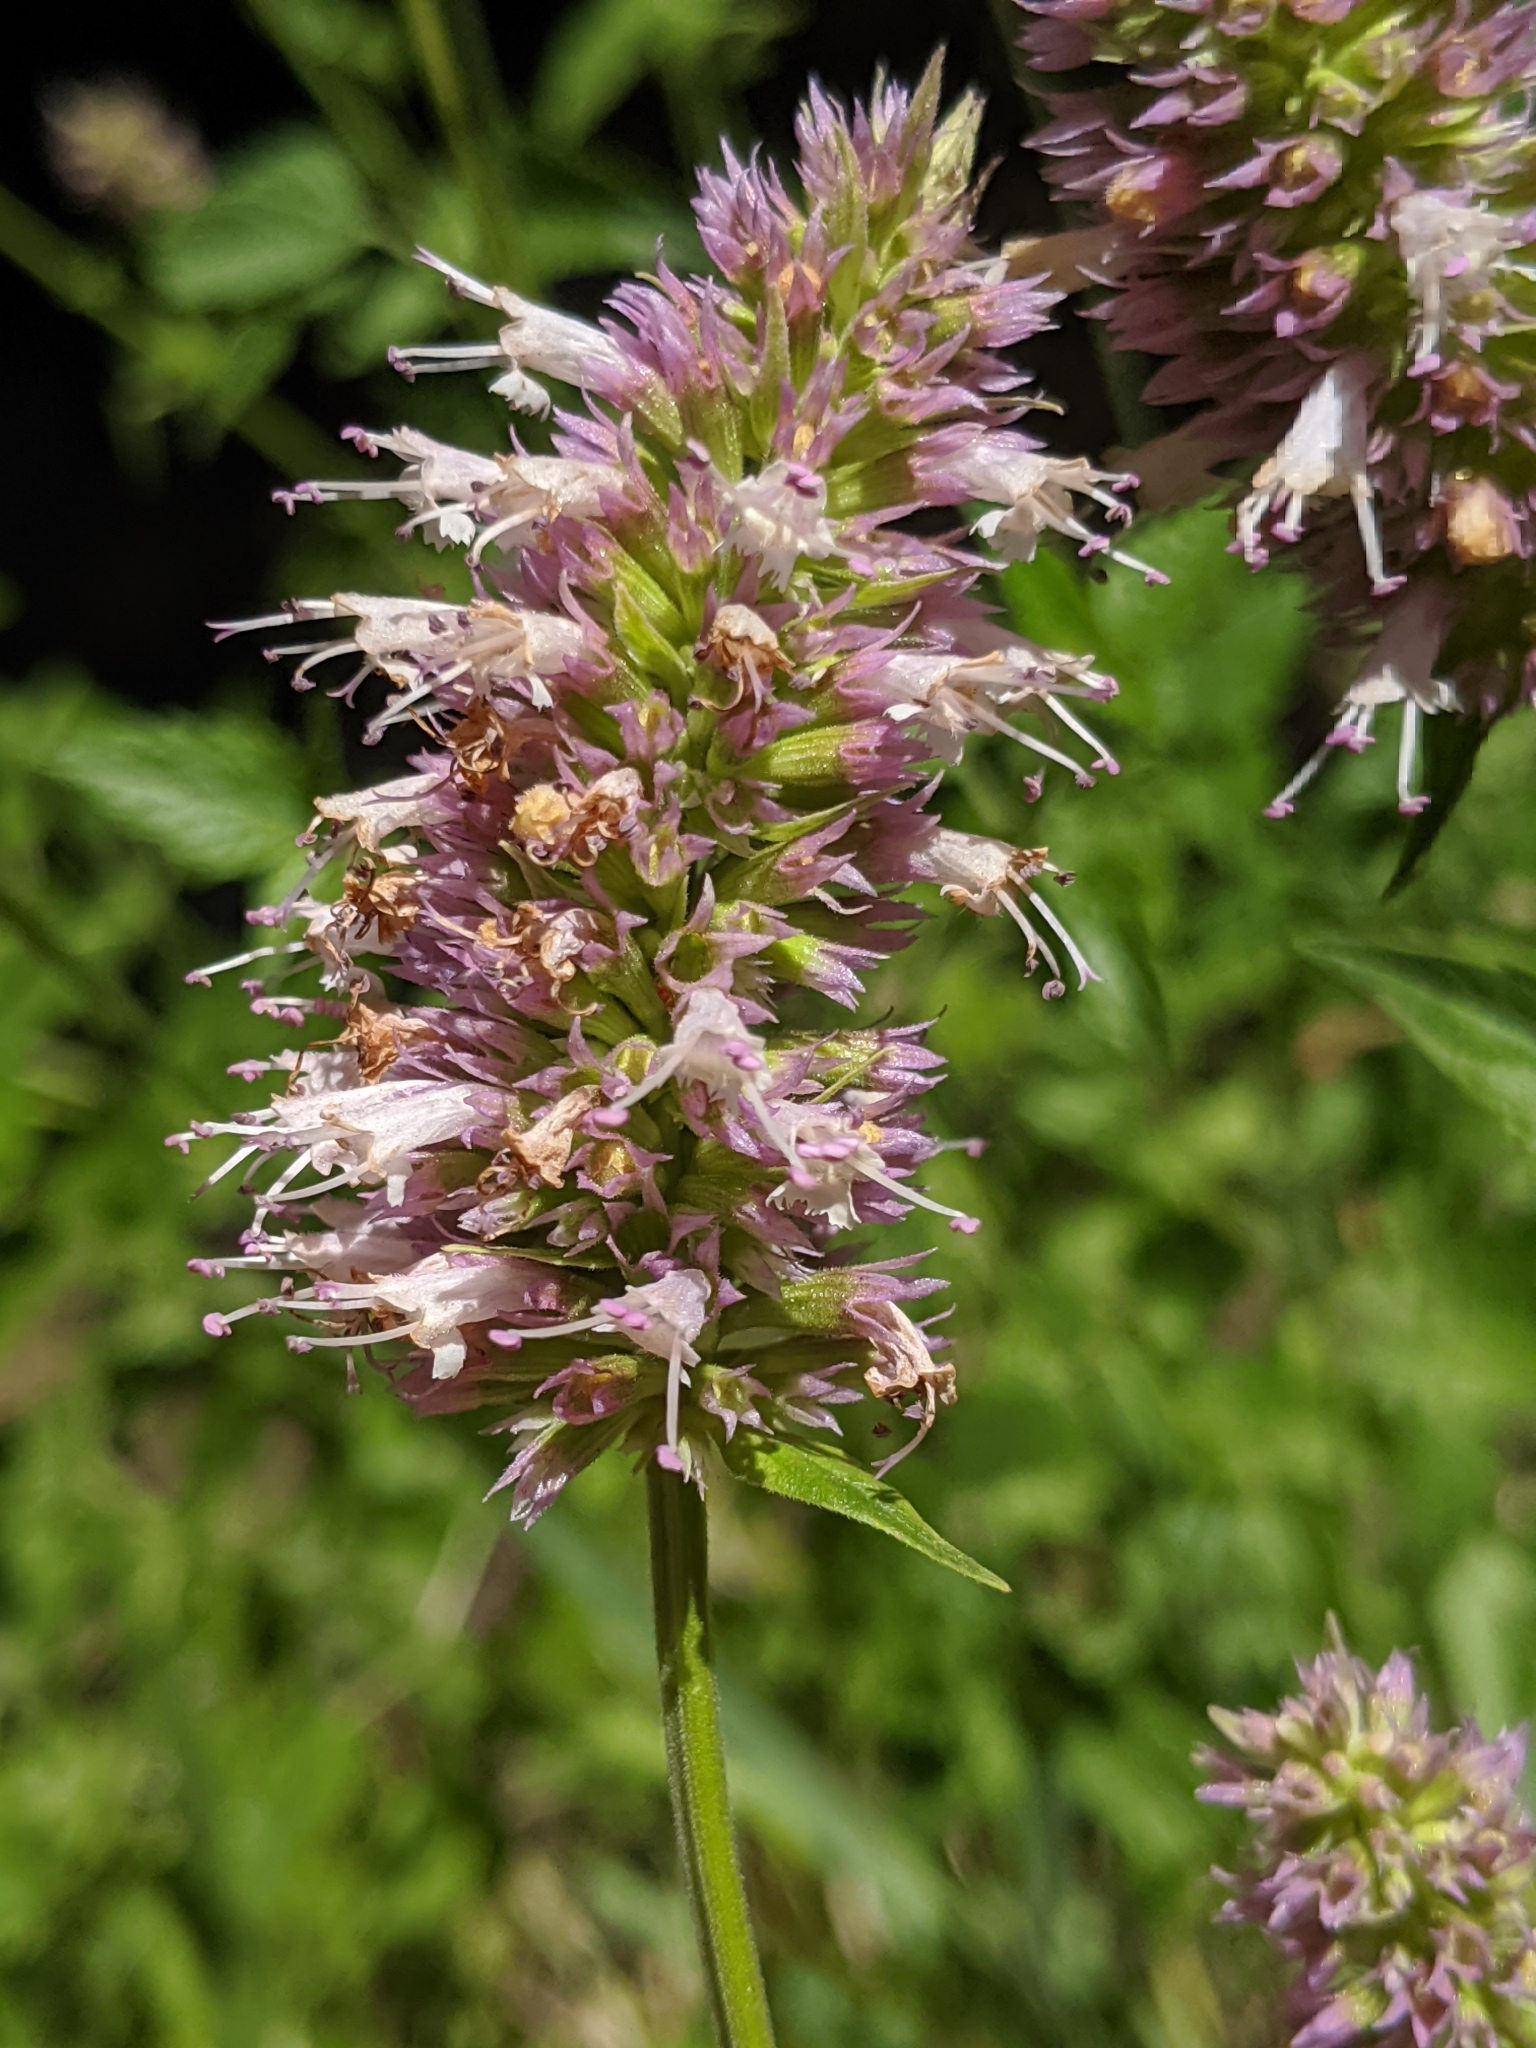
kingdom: Plantae
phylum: Tracheophyta
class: Magnoliopsida
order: Lamiales
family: Lamiaceae
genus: Agastache
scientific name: Agastache urticifolia
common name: Horsemint giant hyssop
